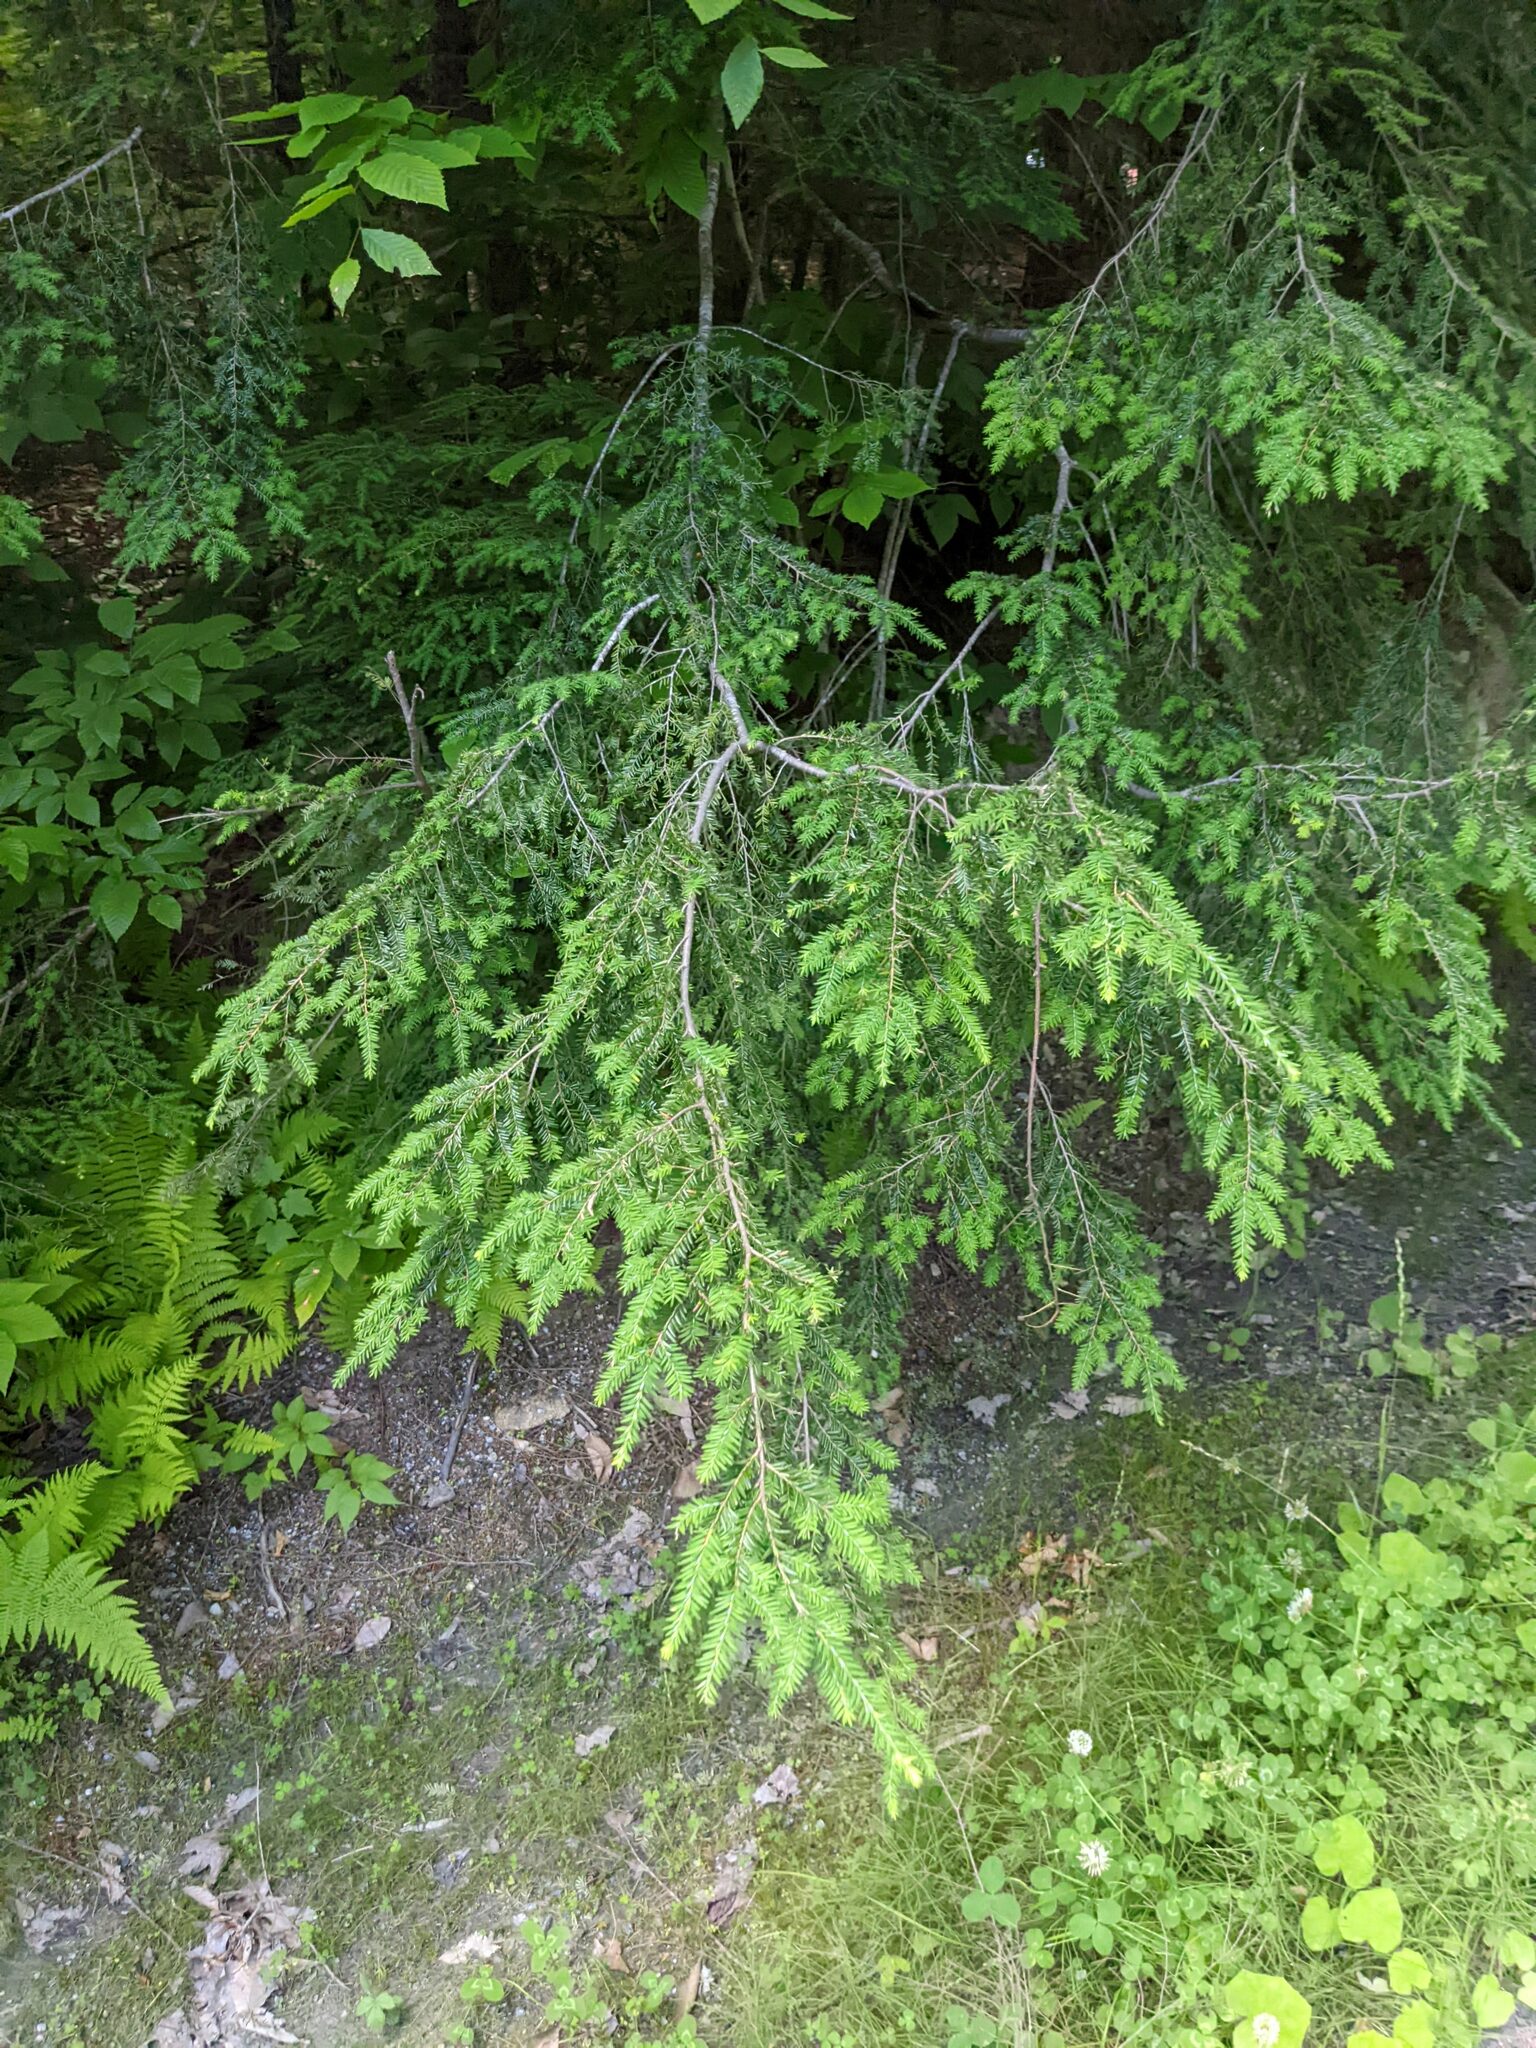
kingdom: Plantae
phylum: Tracheophyta
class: Pinopsida
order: Pinales
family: Pinaceae
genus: Tsuga
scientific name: Tsuga canadensis
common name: Eastern hemlock
